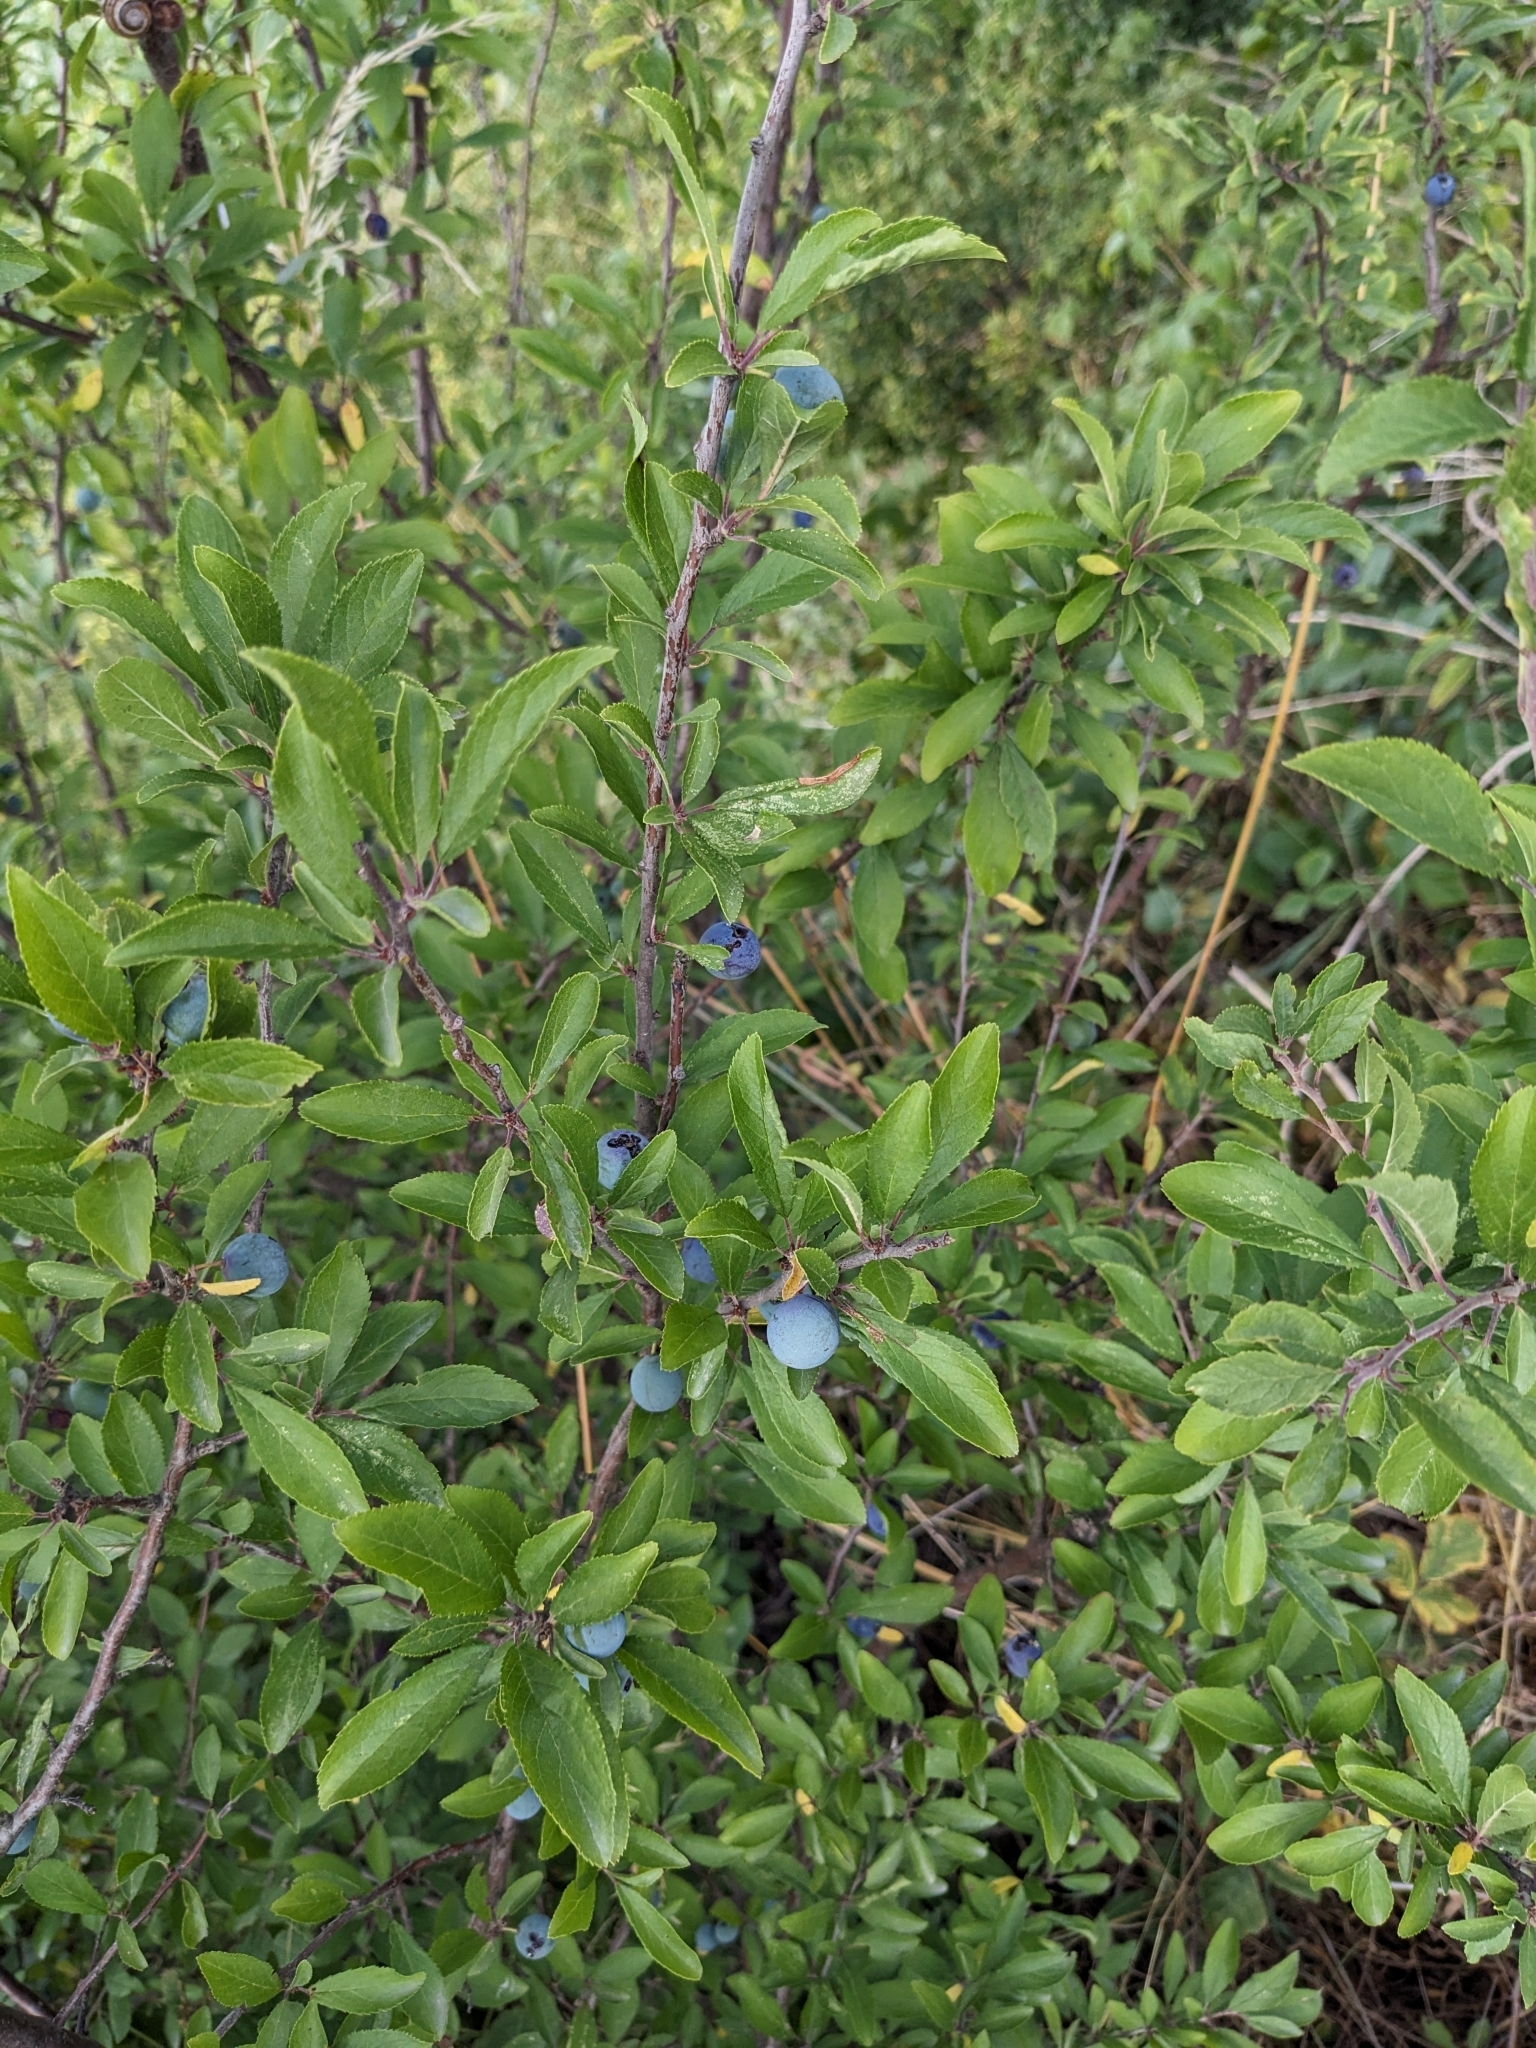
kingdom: Plantae
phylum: Tracheophyta
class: Magnoliopsida
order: Rosales
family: Rosaceae
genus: Prunus
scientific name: Prunus spinosa
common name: Blackthorn
